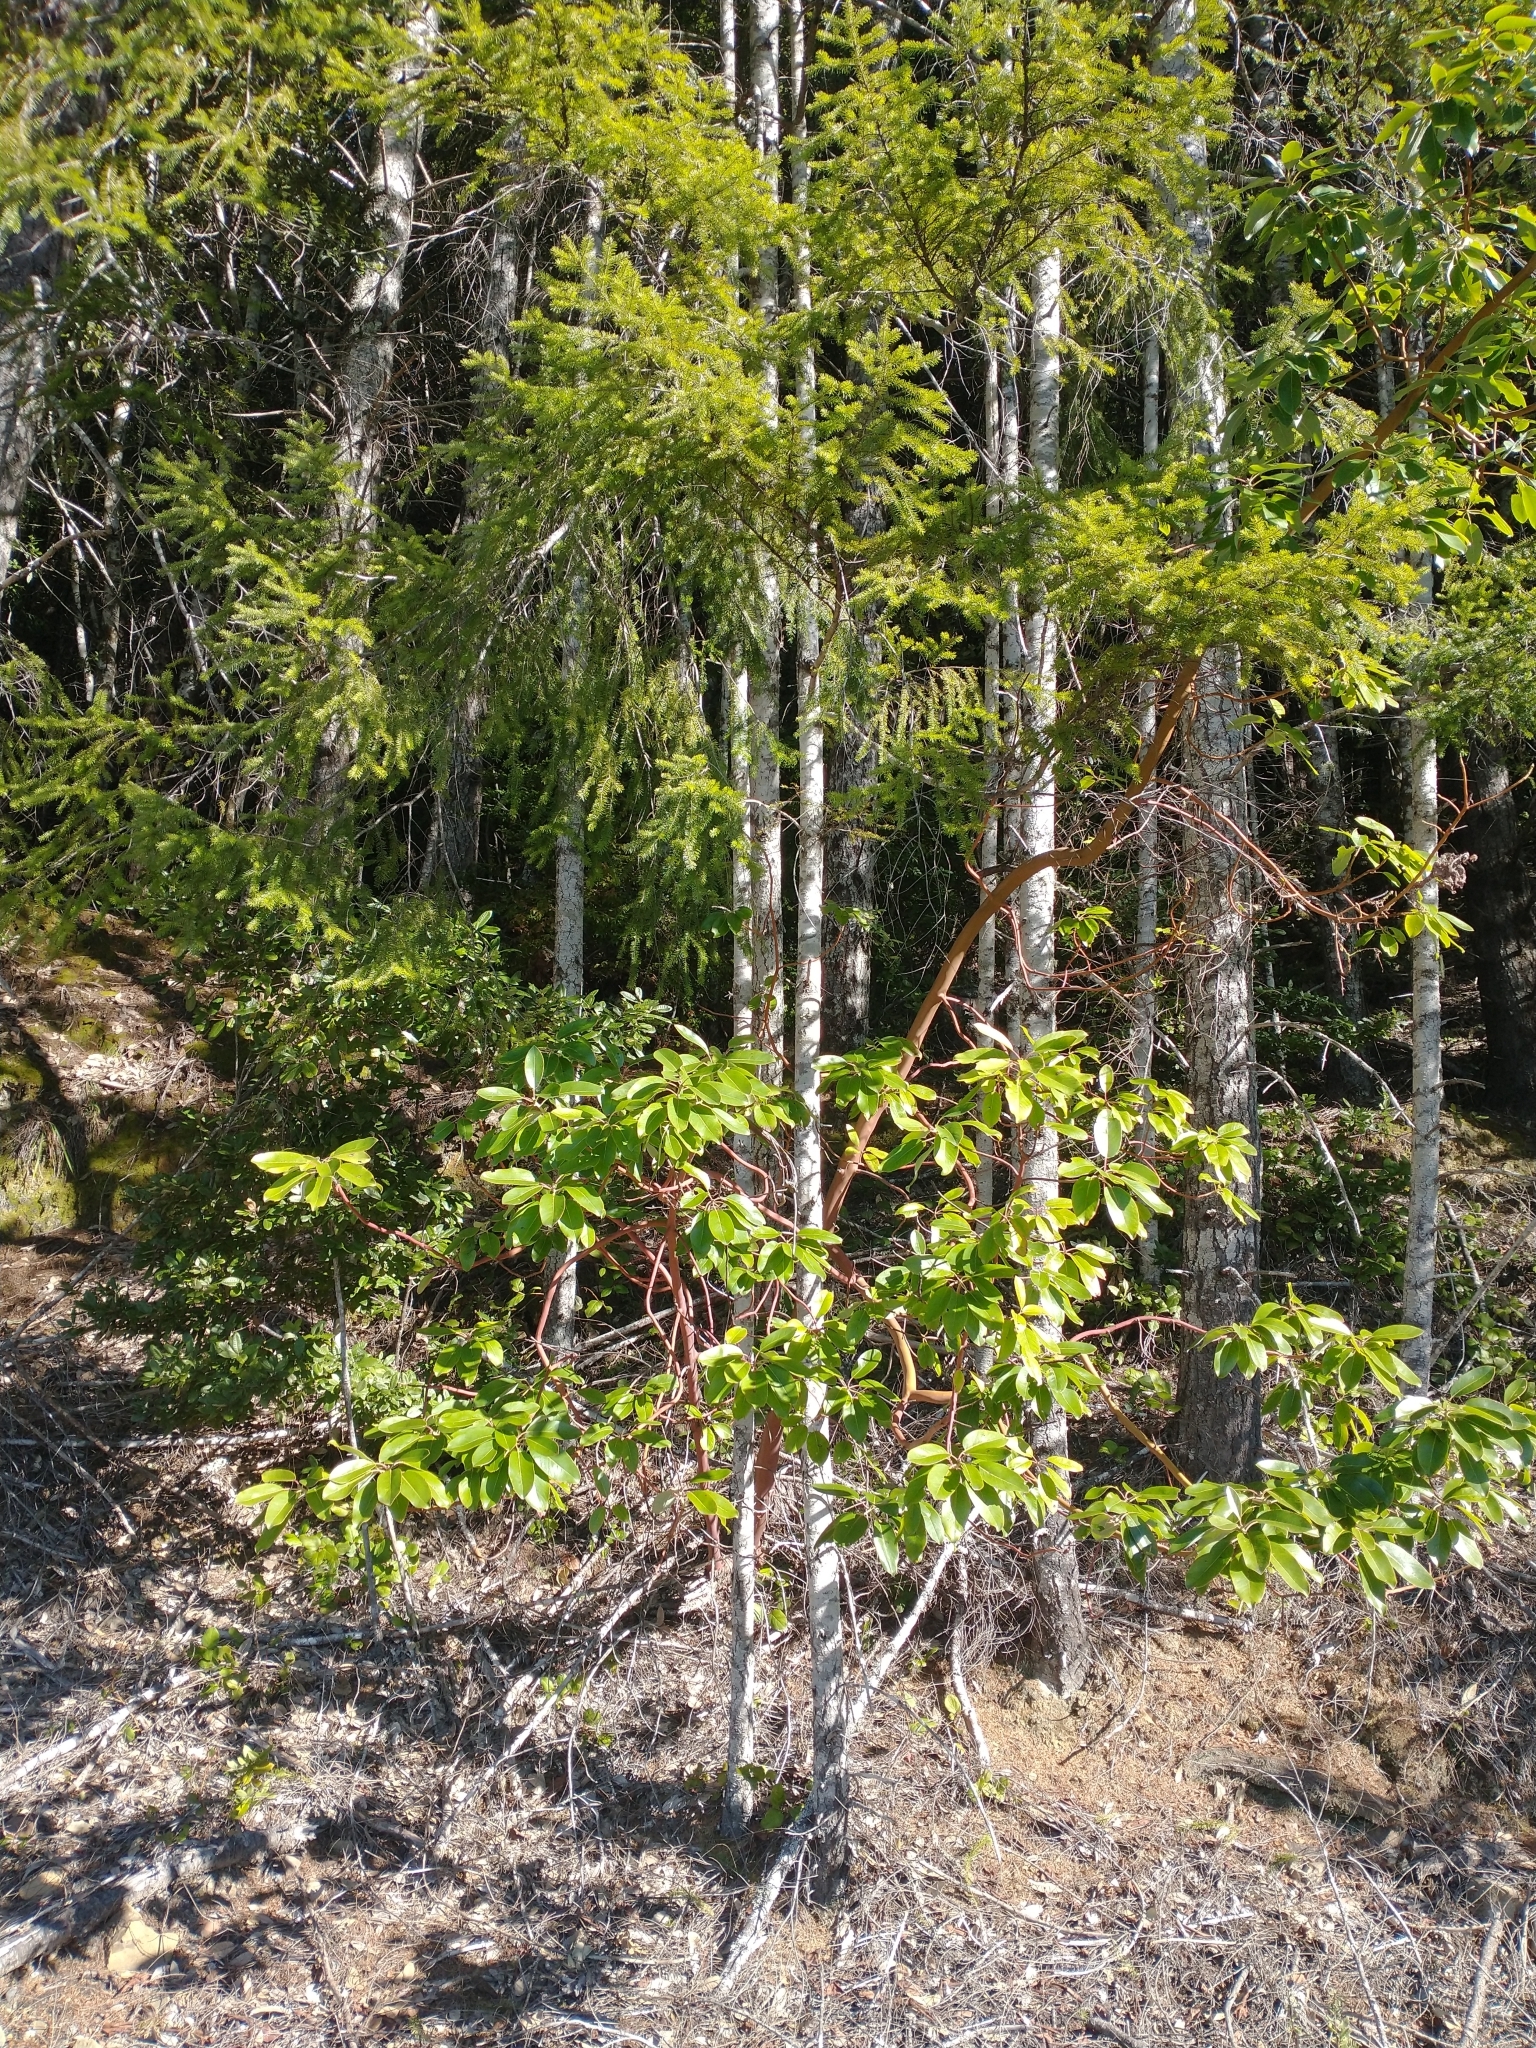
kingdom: Plantae
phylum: Tracheophyta
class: Magnoliopsida
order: Ericales
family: Ericaceae
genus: Arbutus
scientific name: Arbutus menziesii
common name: Pacific madrone
